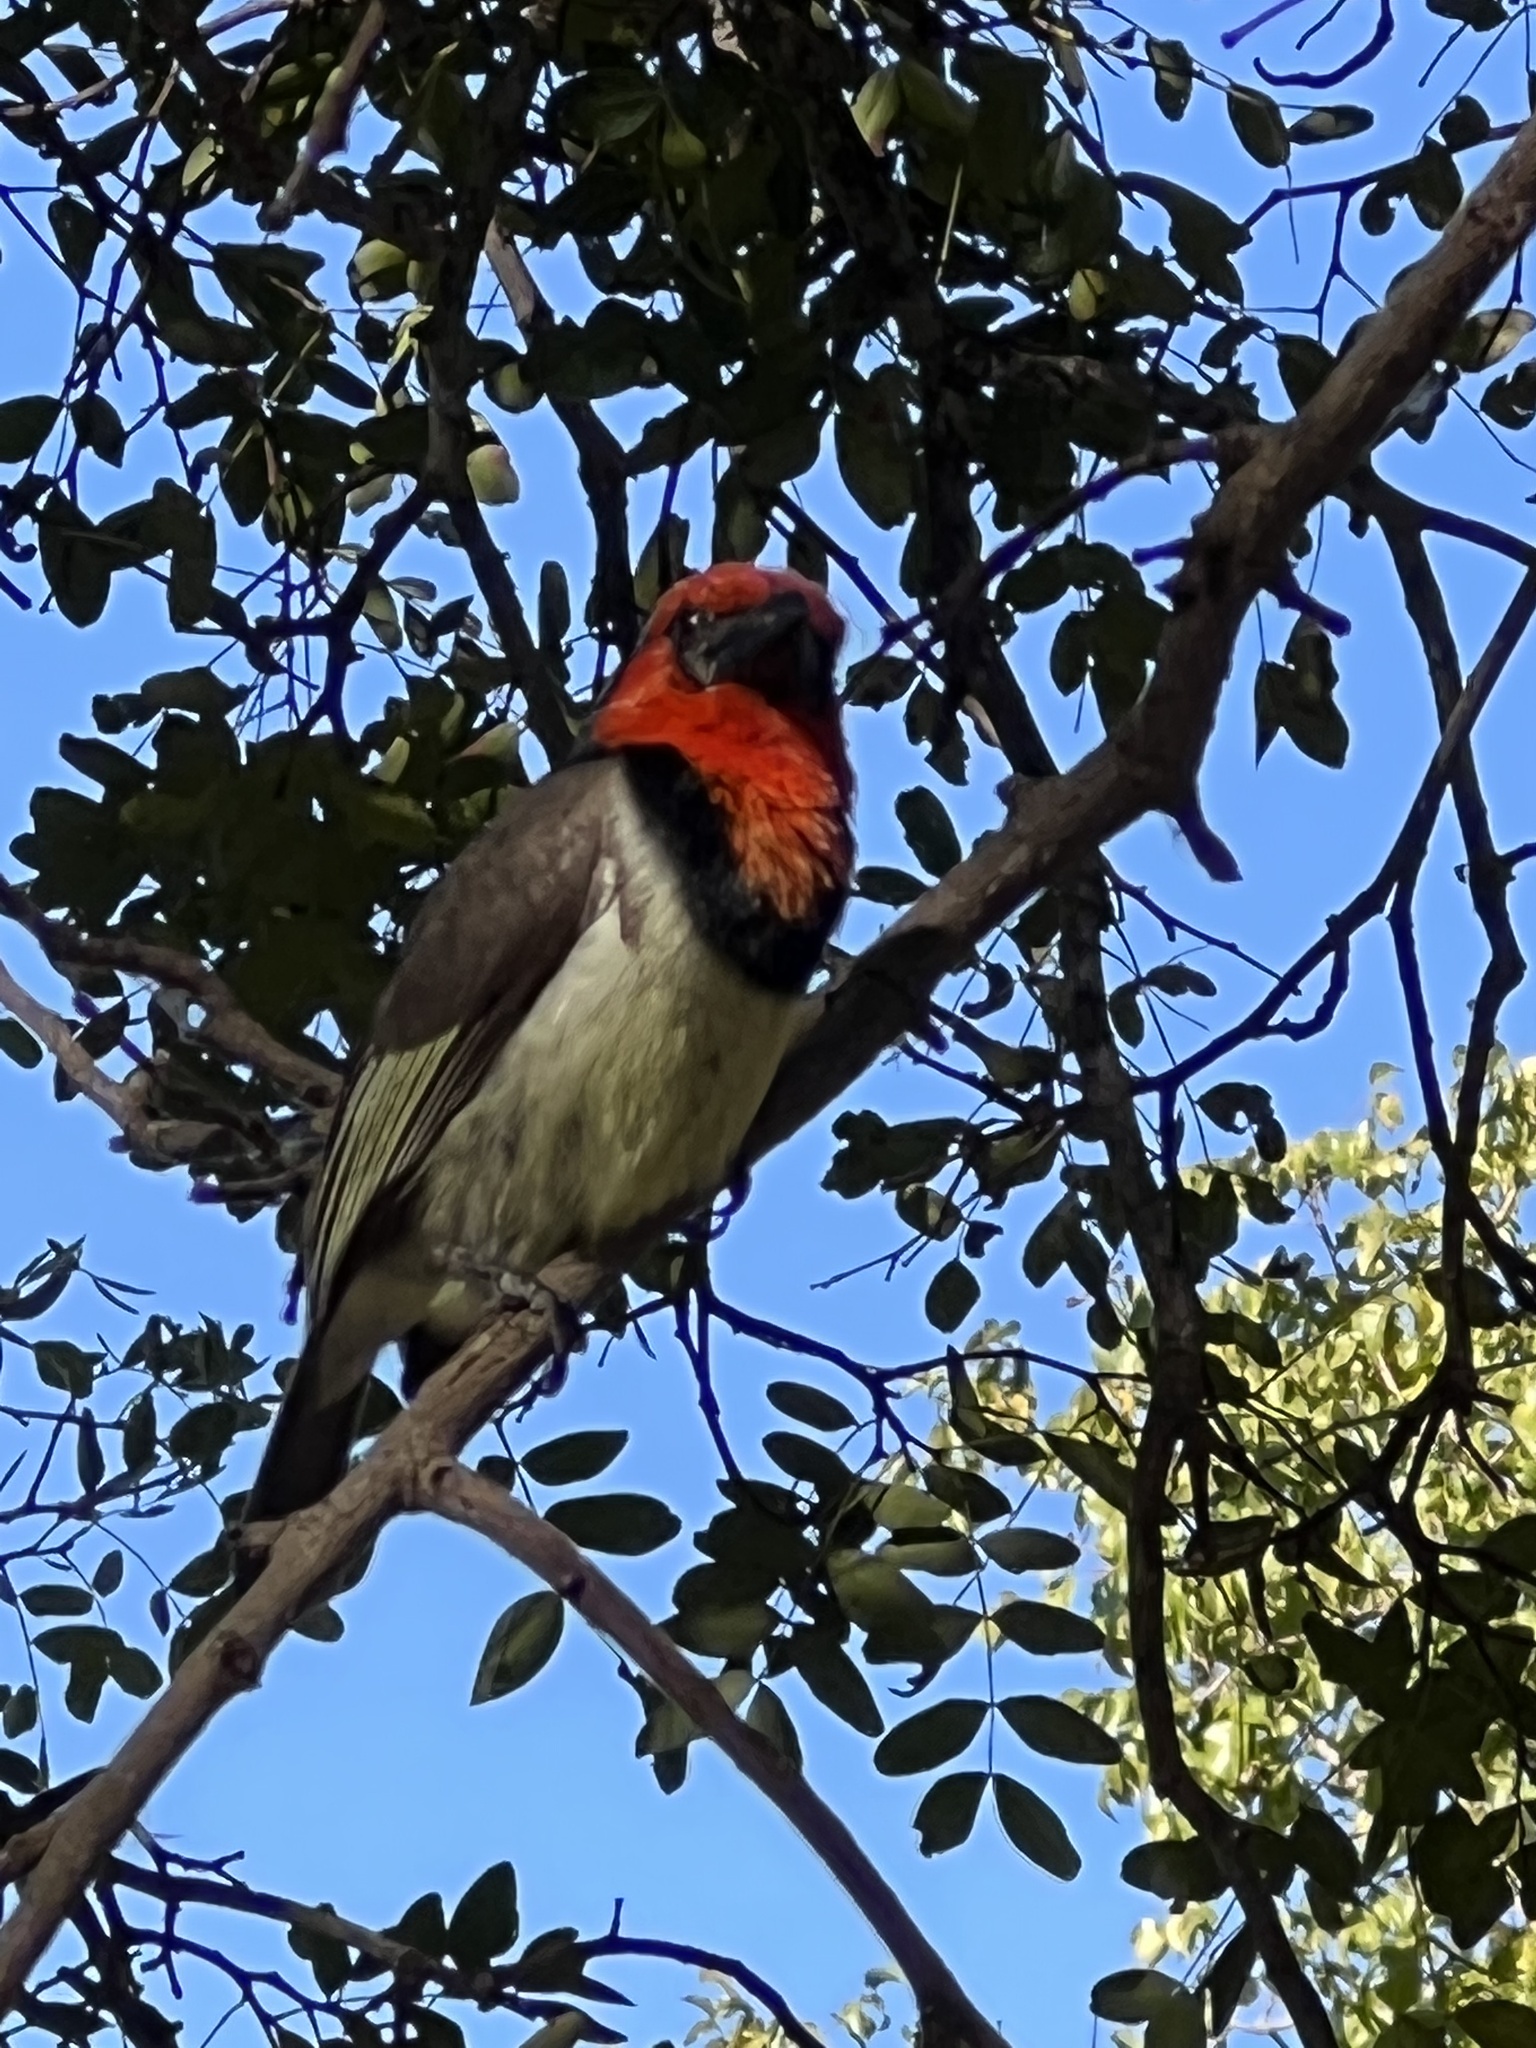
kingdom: Animalia
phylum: Chordata
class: Aves
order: Piciformes
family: Lybiidae
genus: Lybius
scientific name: Lybius torquatus
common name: Black-collared barbet
